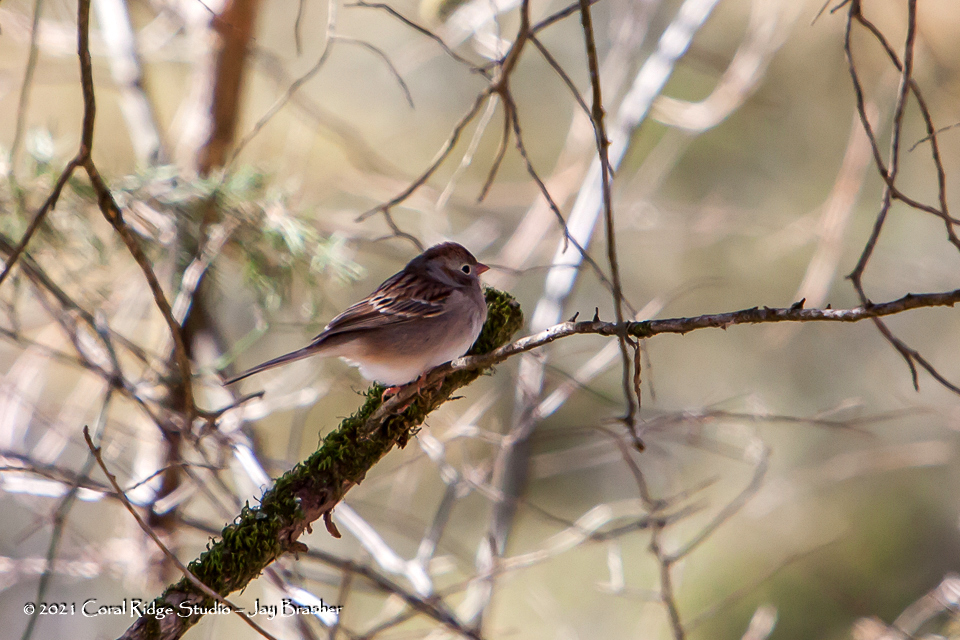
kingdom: Animalia
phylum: Chordata
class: Aves
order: Passeriformes
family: Passerellidae
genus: Spizella
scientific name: Spizella pusilla
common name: Field sparrow
